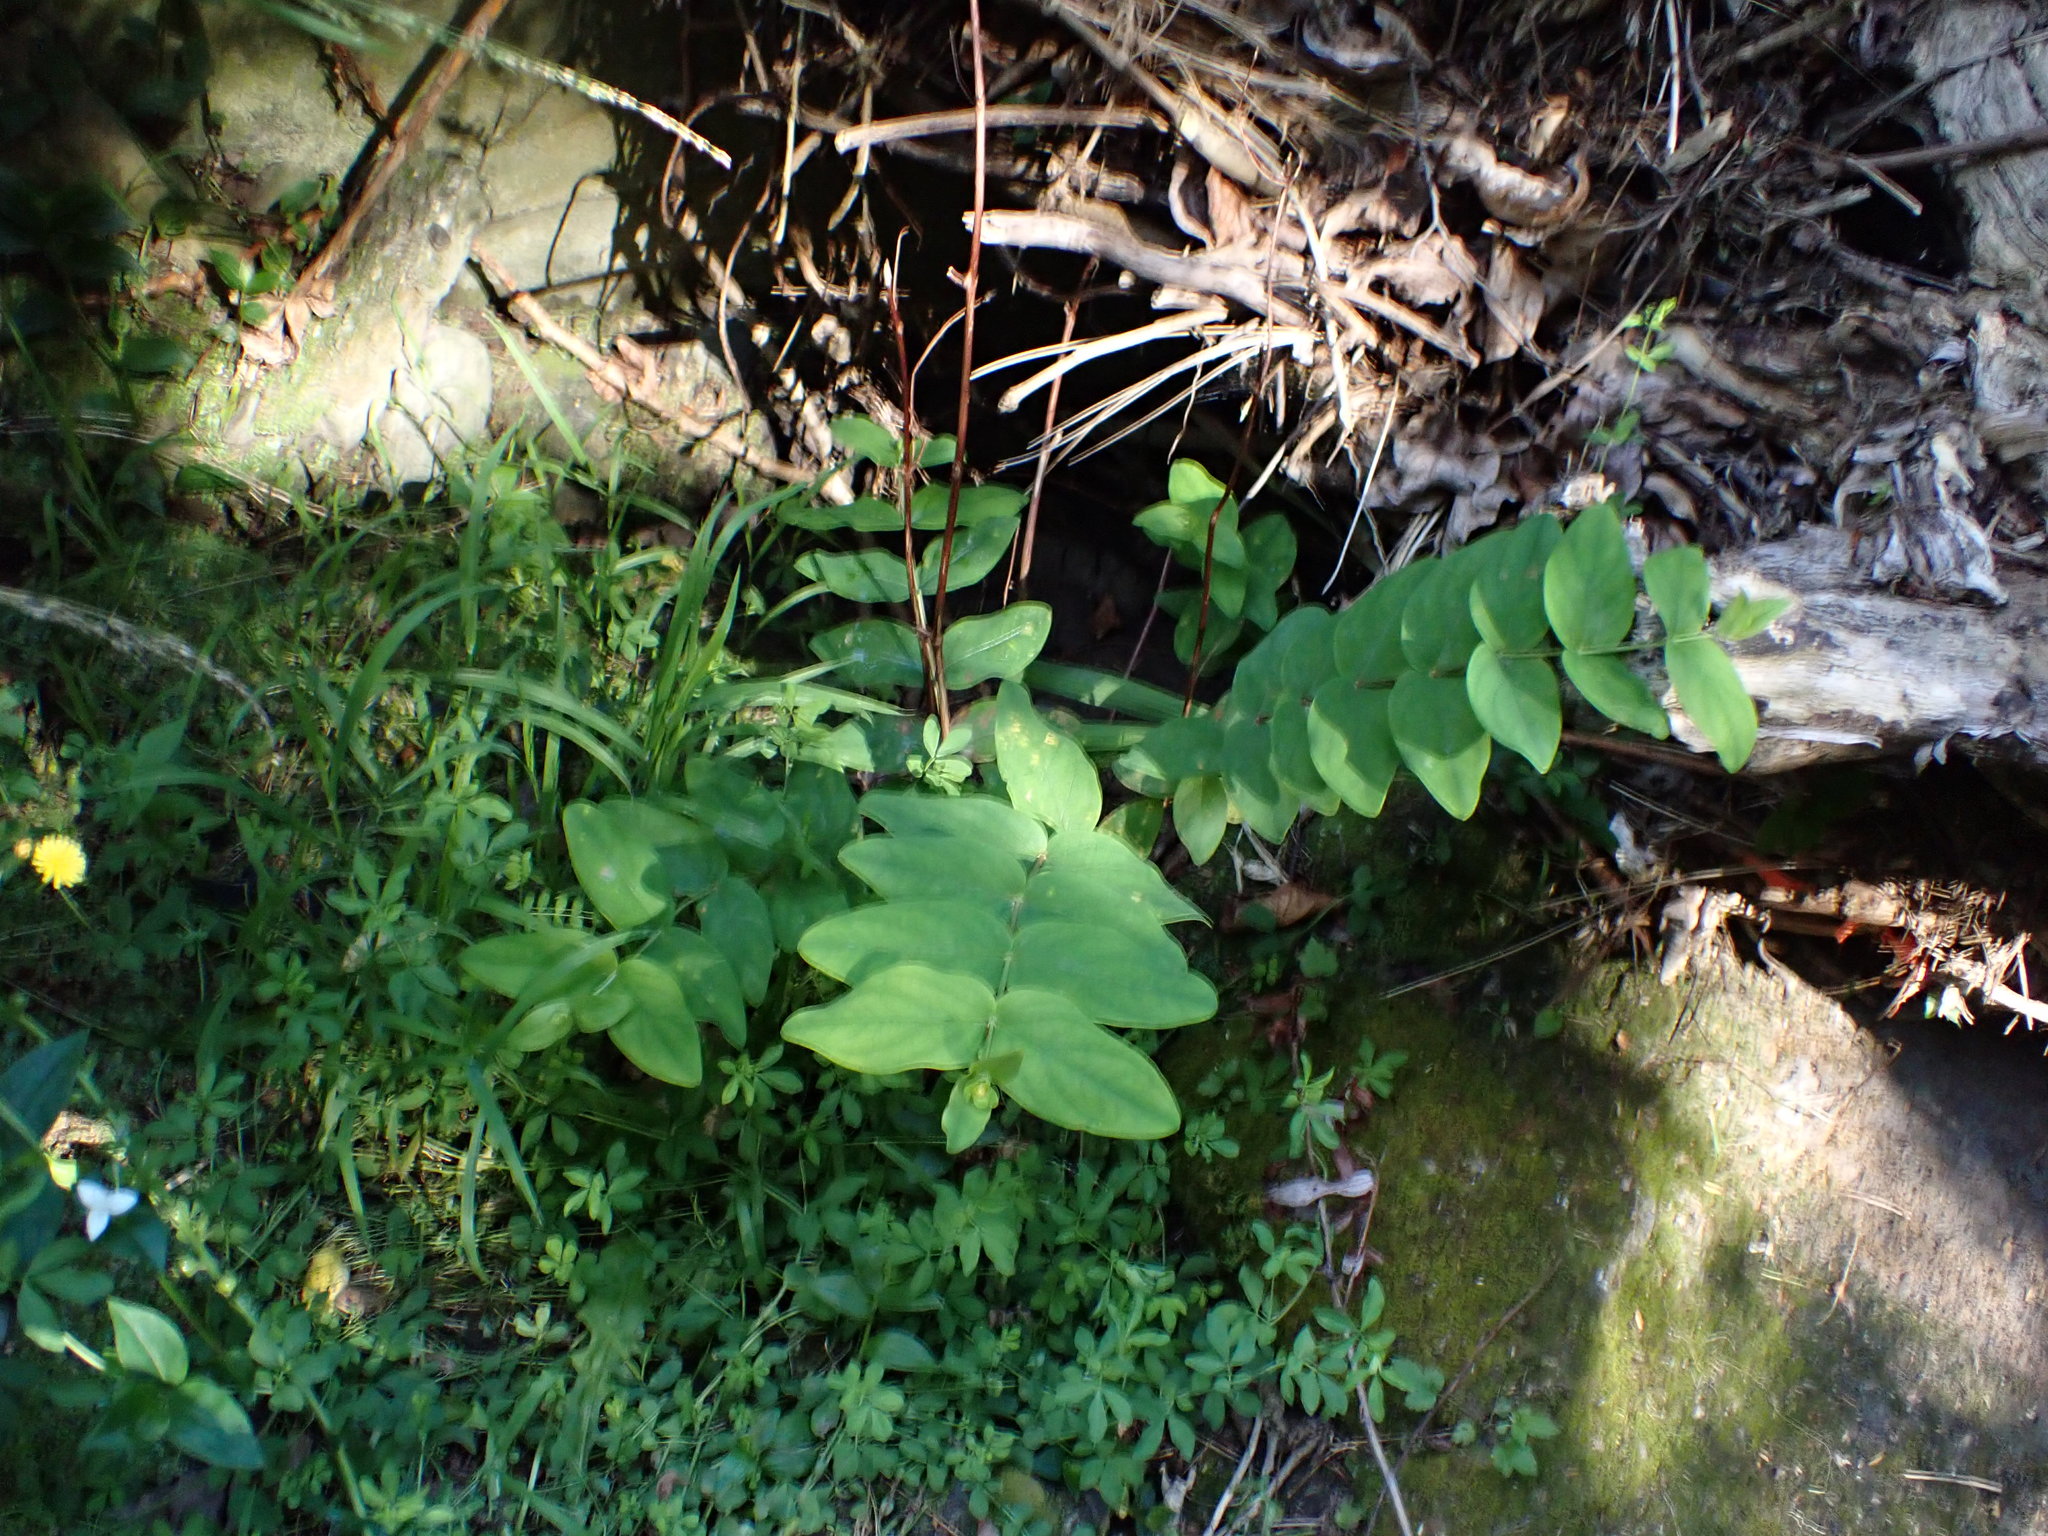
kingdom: Plantae
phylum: Tracheophyta
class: Magnoliopsida
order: Malpighiales
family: Hypericaceae
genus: Hypericum
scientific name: Hypericum androsaemum
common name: Sweet-amber
